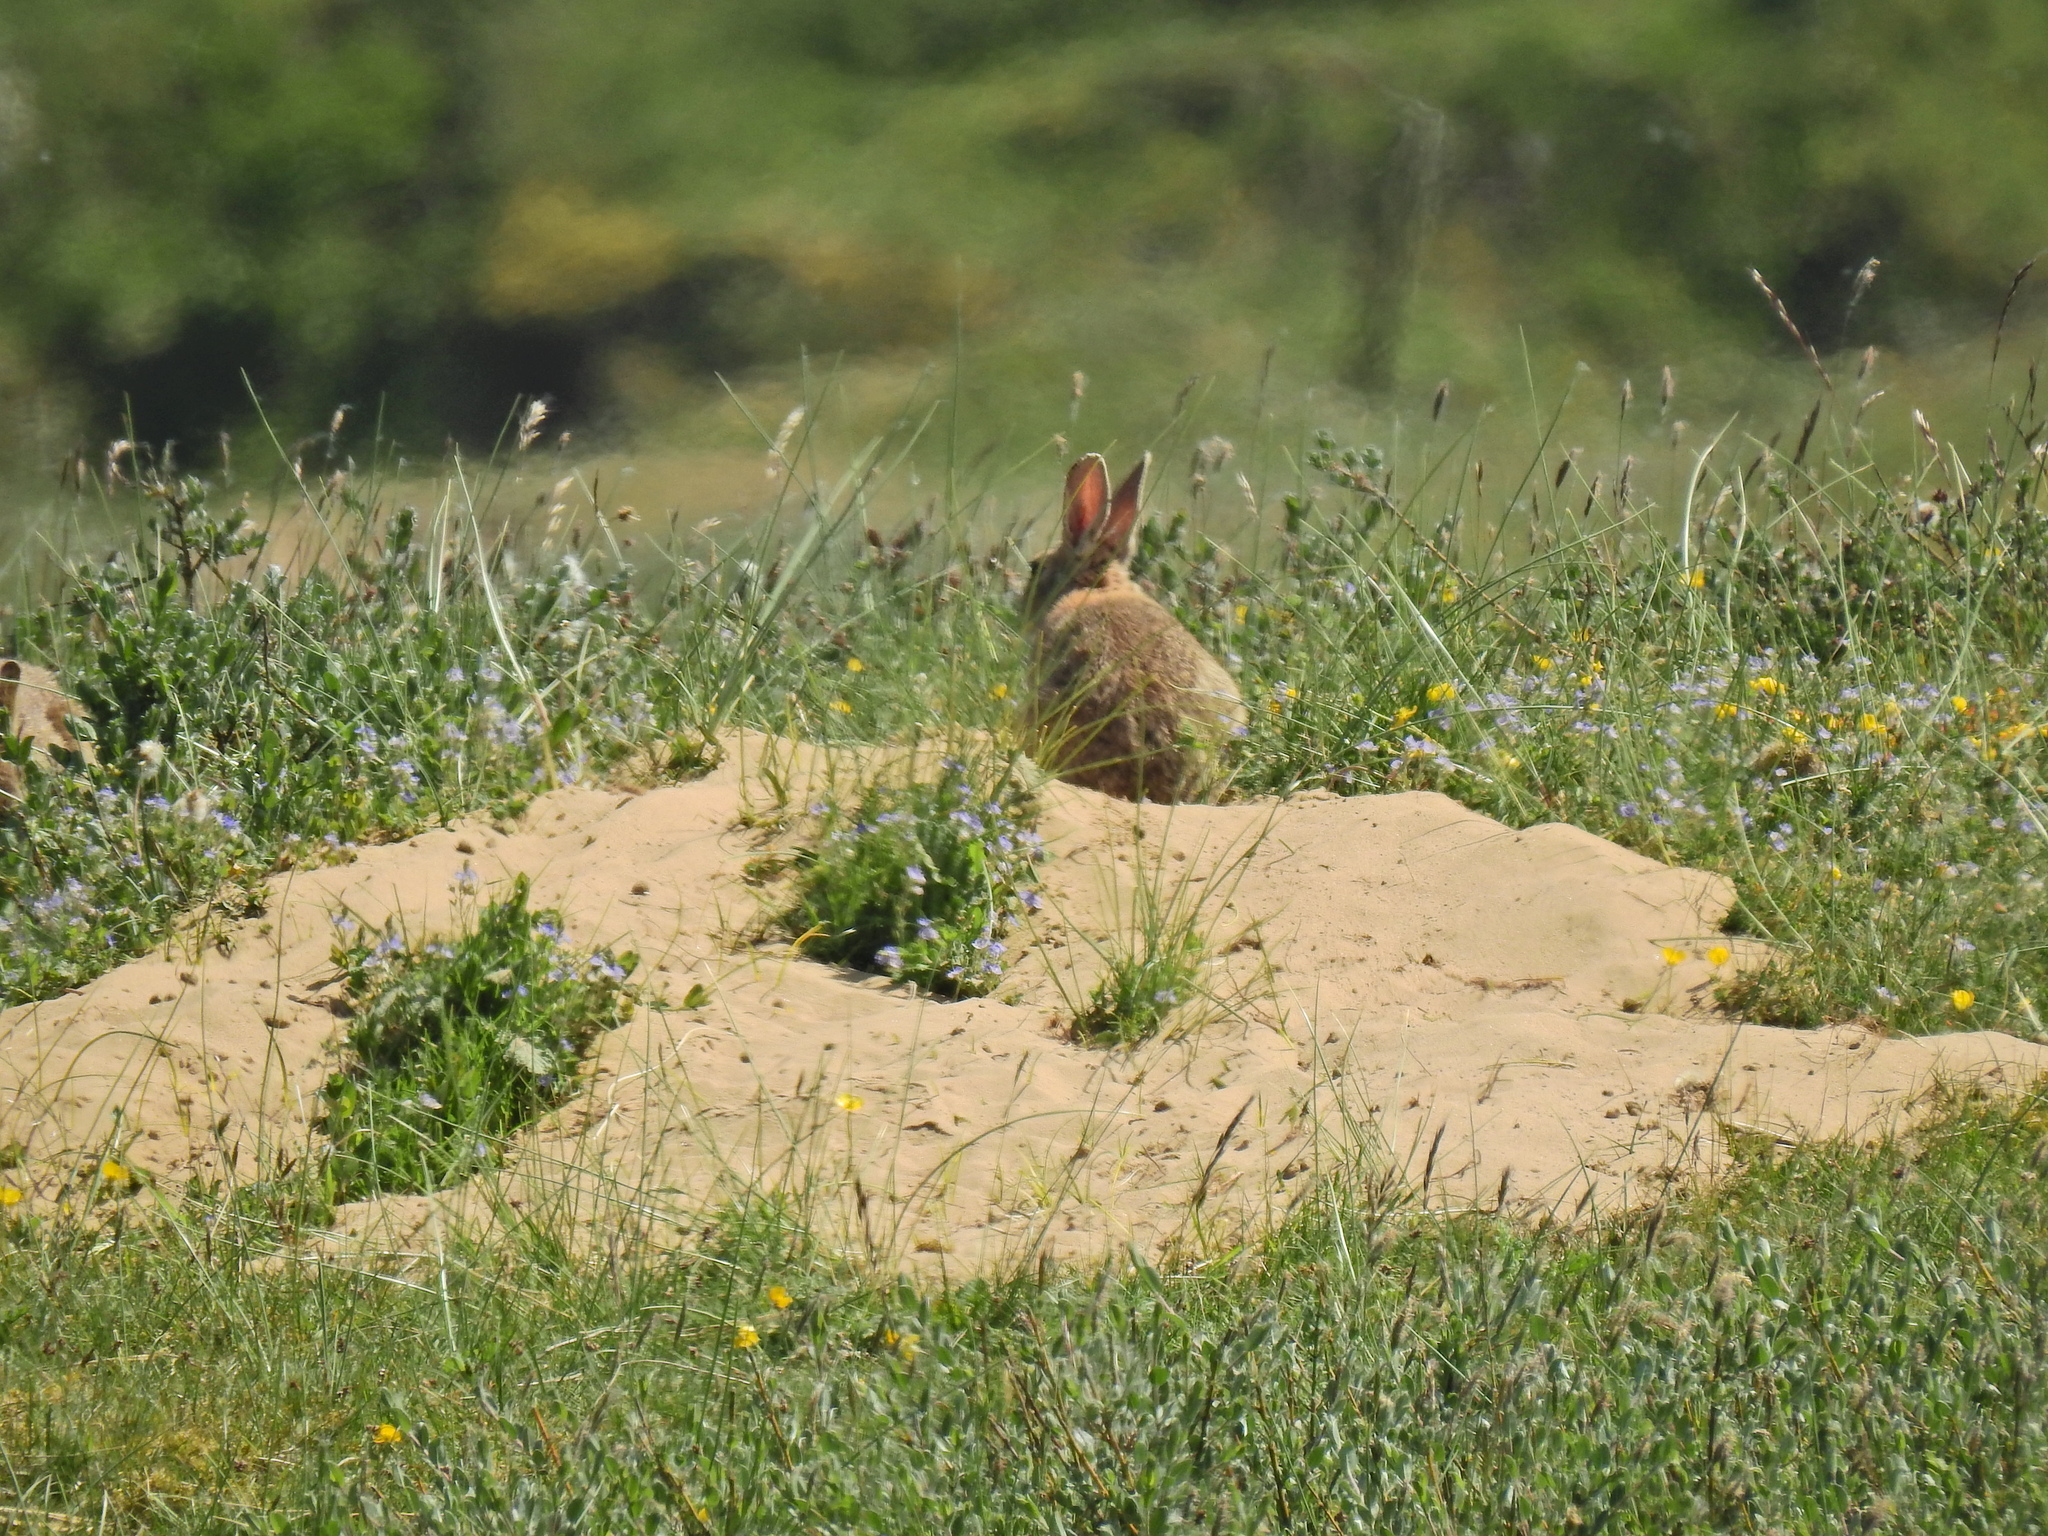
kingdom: Animalia
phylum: Chordata
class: Mammalia
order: Lagomorpha
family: Leporidae
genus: Oryctolagus
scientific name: Oryctolagus cuniculus
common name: European rabbit
